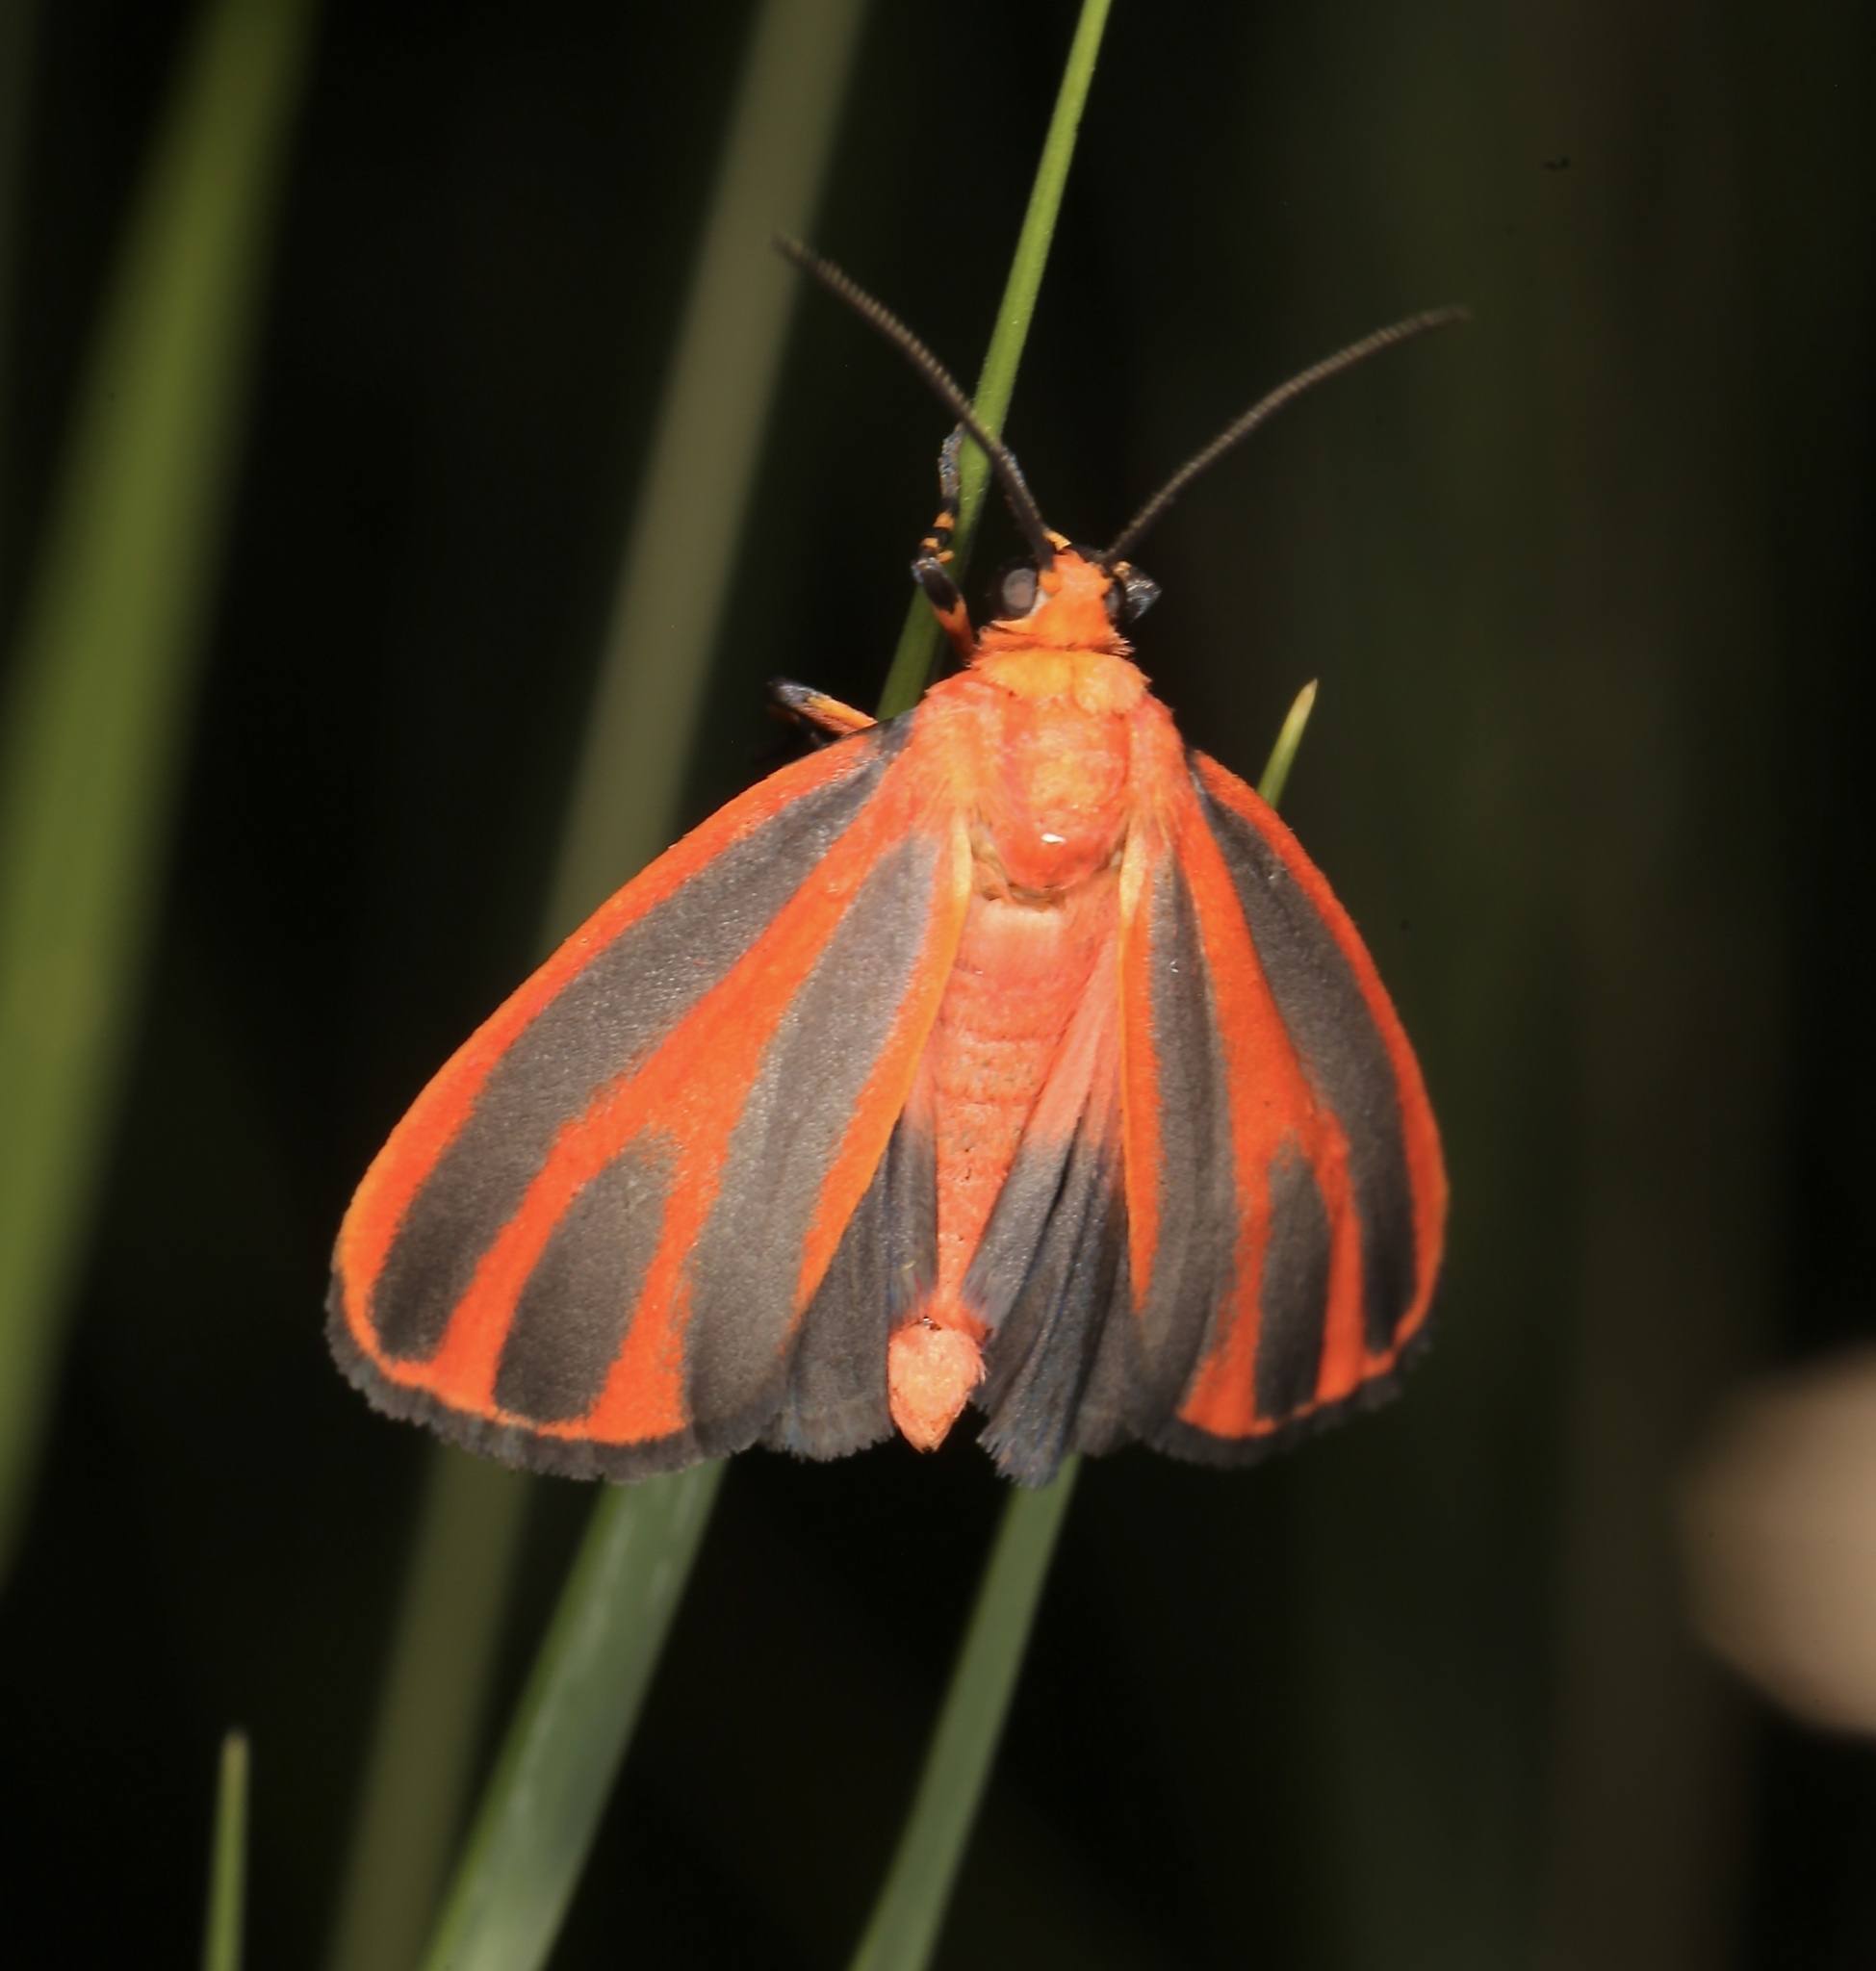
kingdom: Animalia
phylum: Arthropoda
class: Insecta
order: Lepidoptera
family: Erebidae
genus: Hypoprepia
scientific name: Hypoprepia miniata
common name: Scarlet-winged lichen moth
